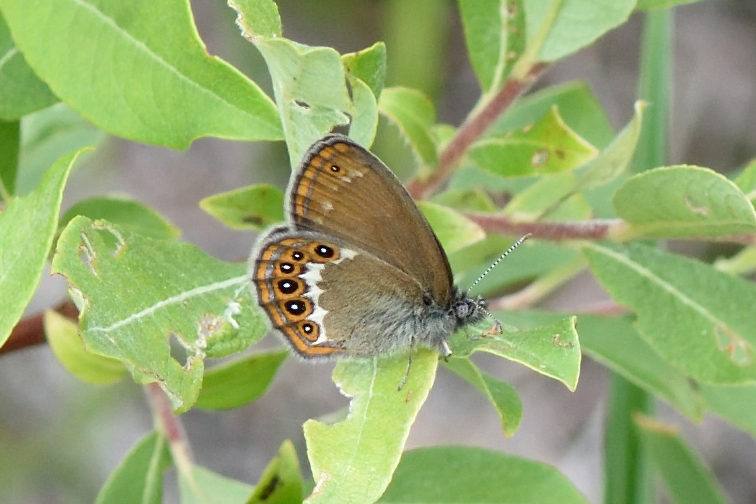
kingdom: Animalia
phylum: Arthropoda
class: Insecta
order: Lepidoptera
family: Nymphalidae
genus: Coenonympha
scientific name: Coenonympha hero
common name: Scarce heath
